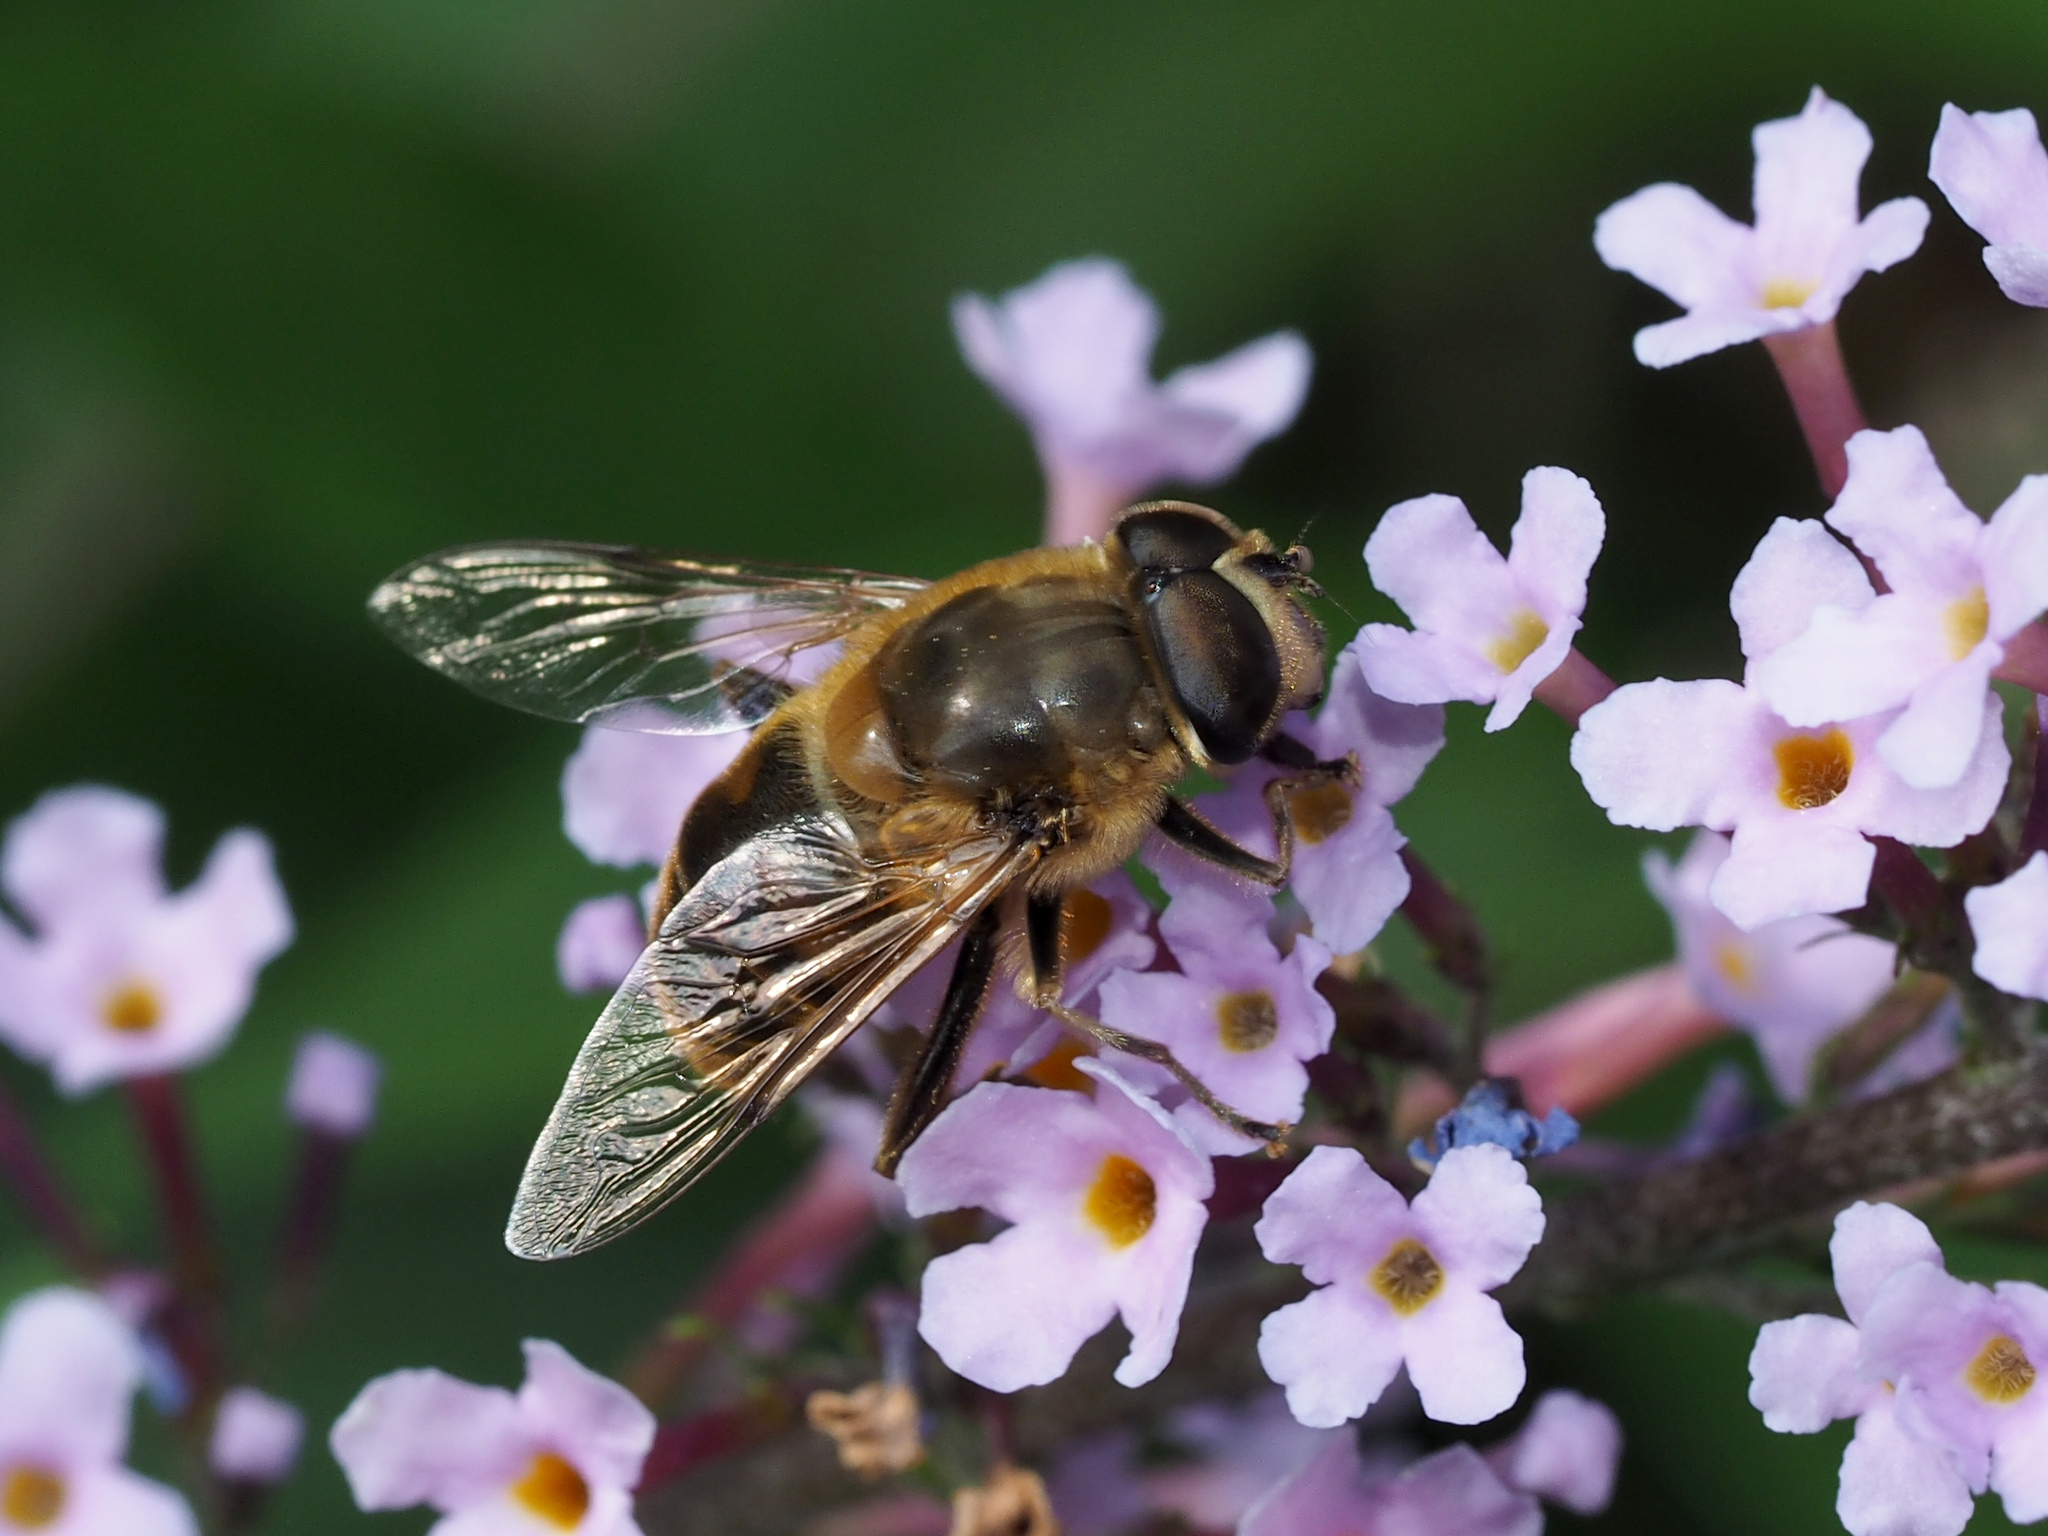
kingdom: Animalia
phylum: Arthropoda
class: Insecta
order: Diptera
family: Syrphidae
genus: Eristalis
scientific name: Eristalis tenax
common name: Drone fly
